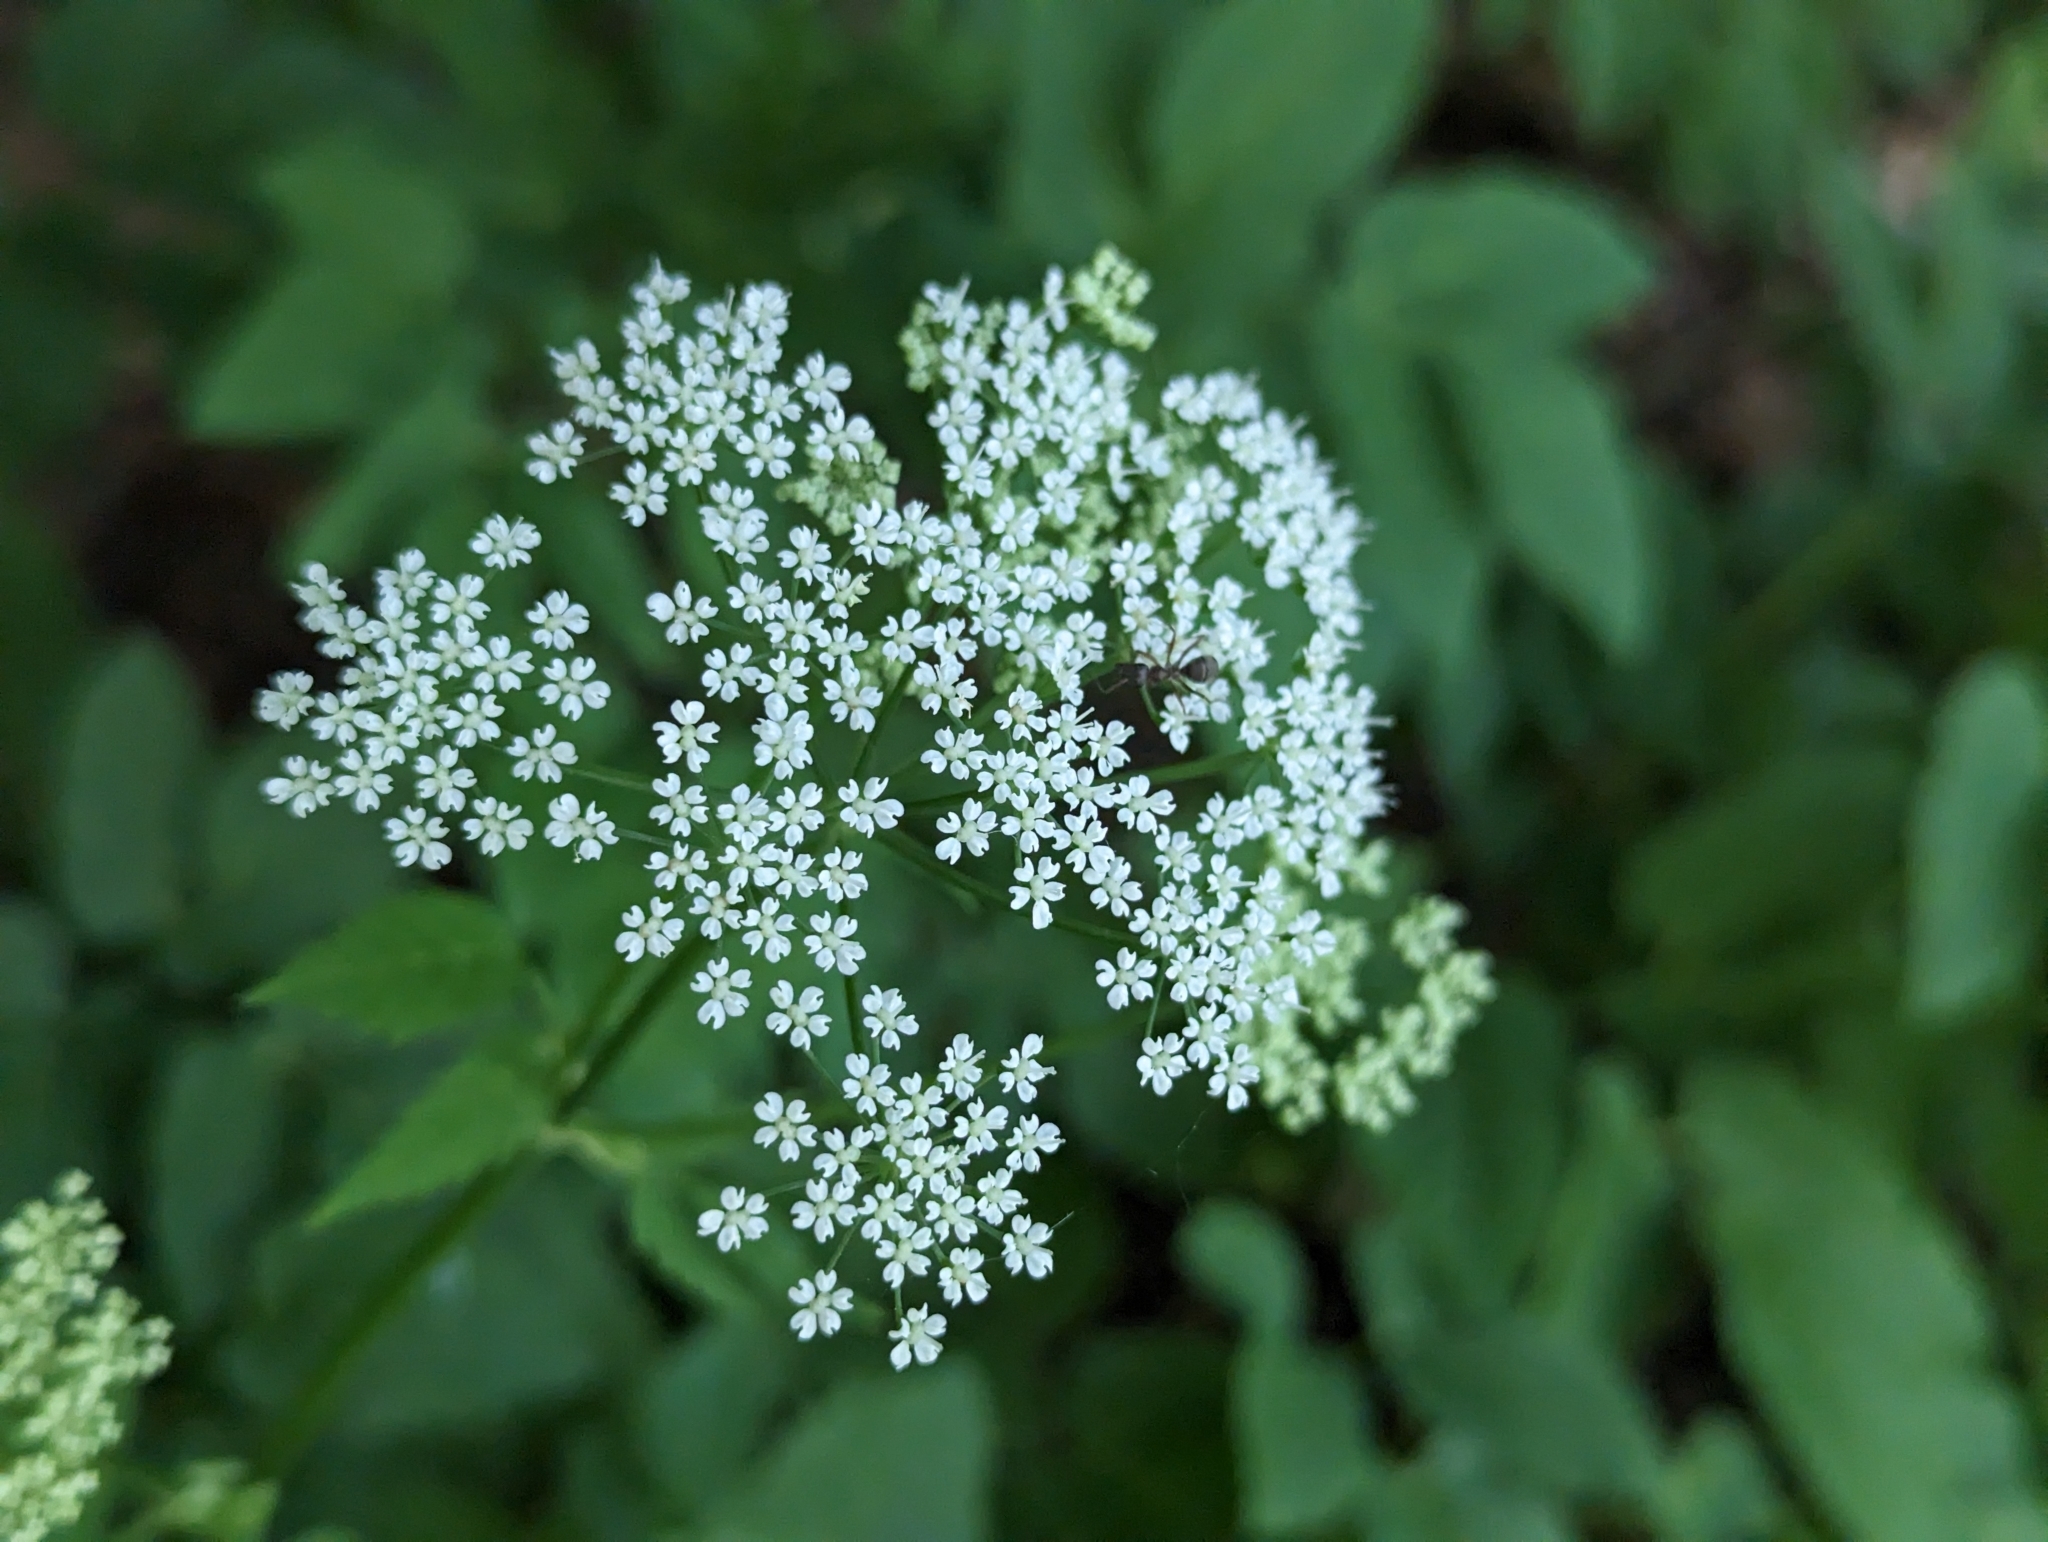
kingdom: Plantae
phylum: Tracheophyta
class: Magnoliopsida
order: Apiales
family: Apiaceae
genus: Aegopodium
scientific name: Aegopodium podagraria
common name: Ground-elder
